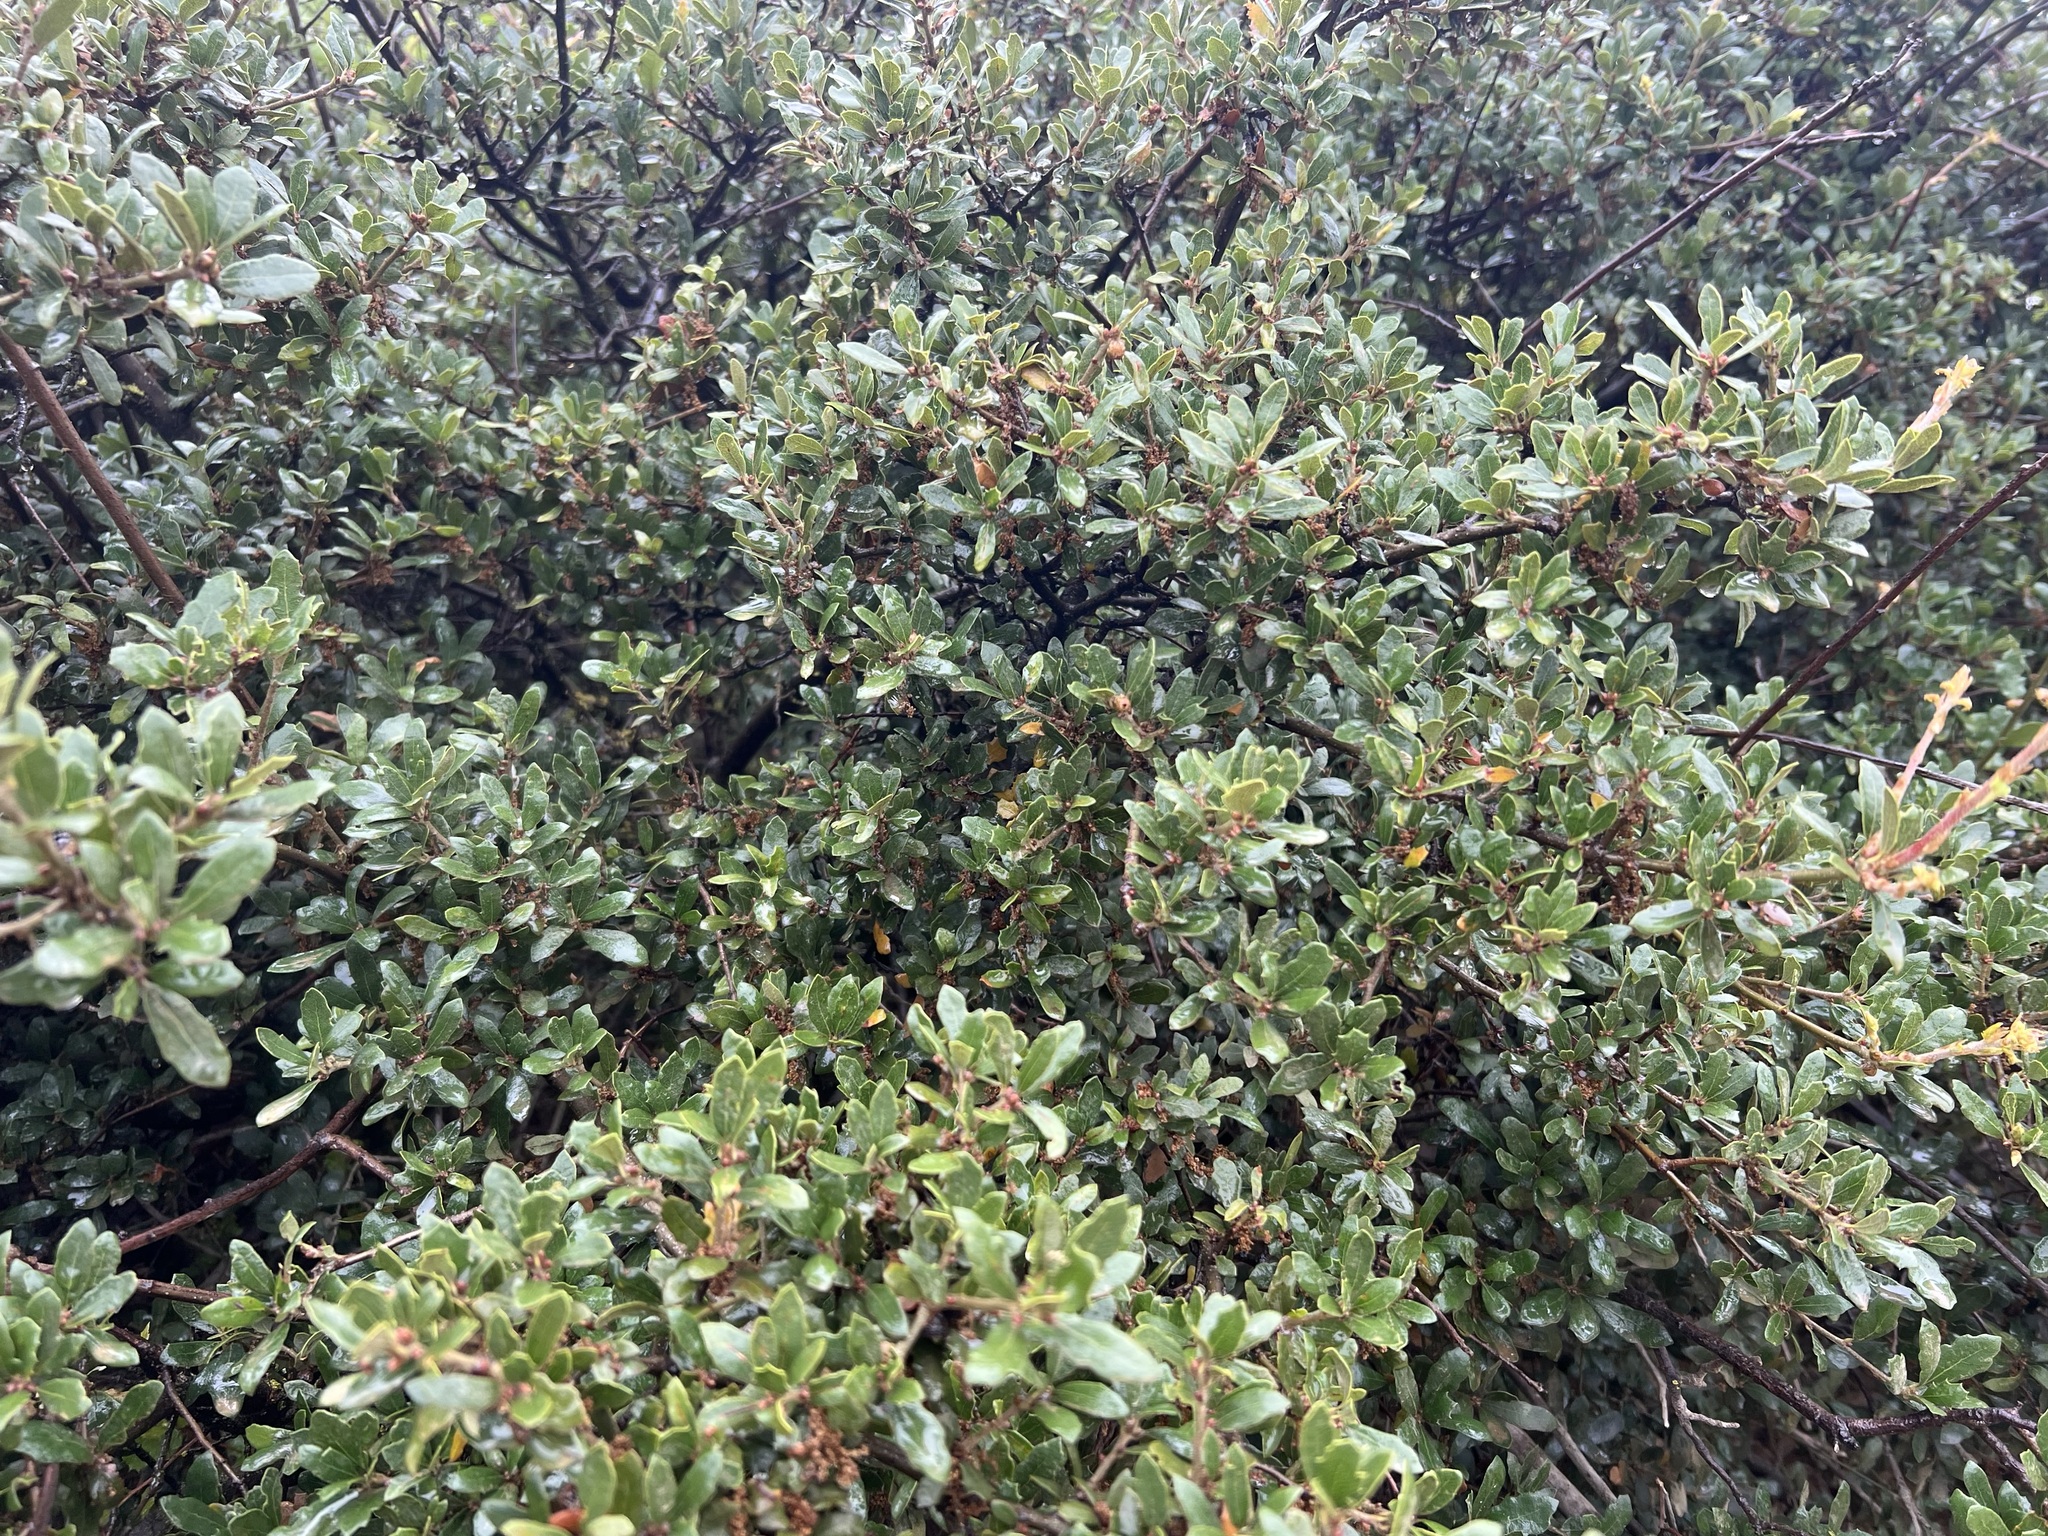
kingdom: Plantae
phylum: Tracheophyta
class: Magnoliopsida
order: Fagales
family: Fagaceae
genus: Quercus
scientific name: Quercus berberidifolia
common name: California scrub oak
